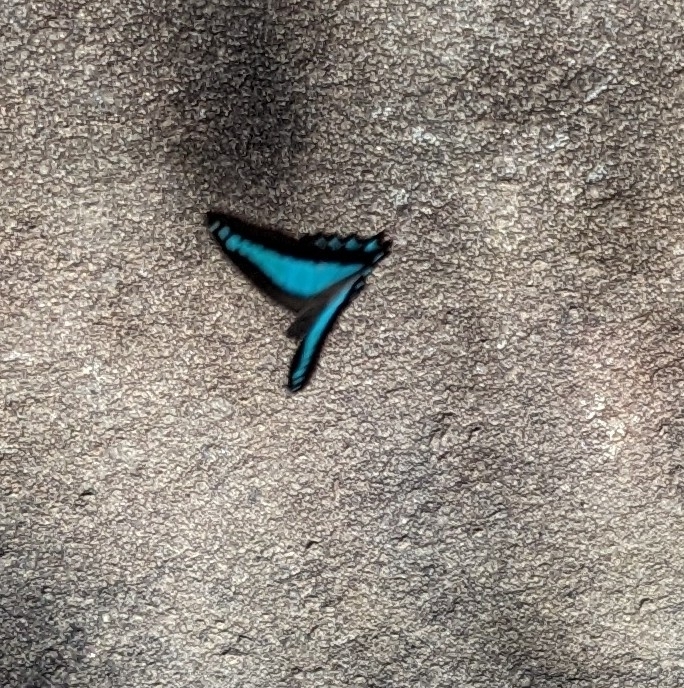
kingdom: Animalia
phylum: Arthropoda
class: Insecta
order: Lepidoptera
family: Papilionidae
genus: Graphium
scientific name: Graphium
